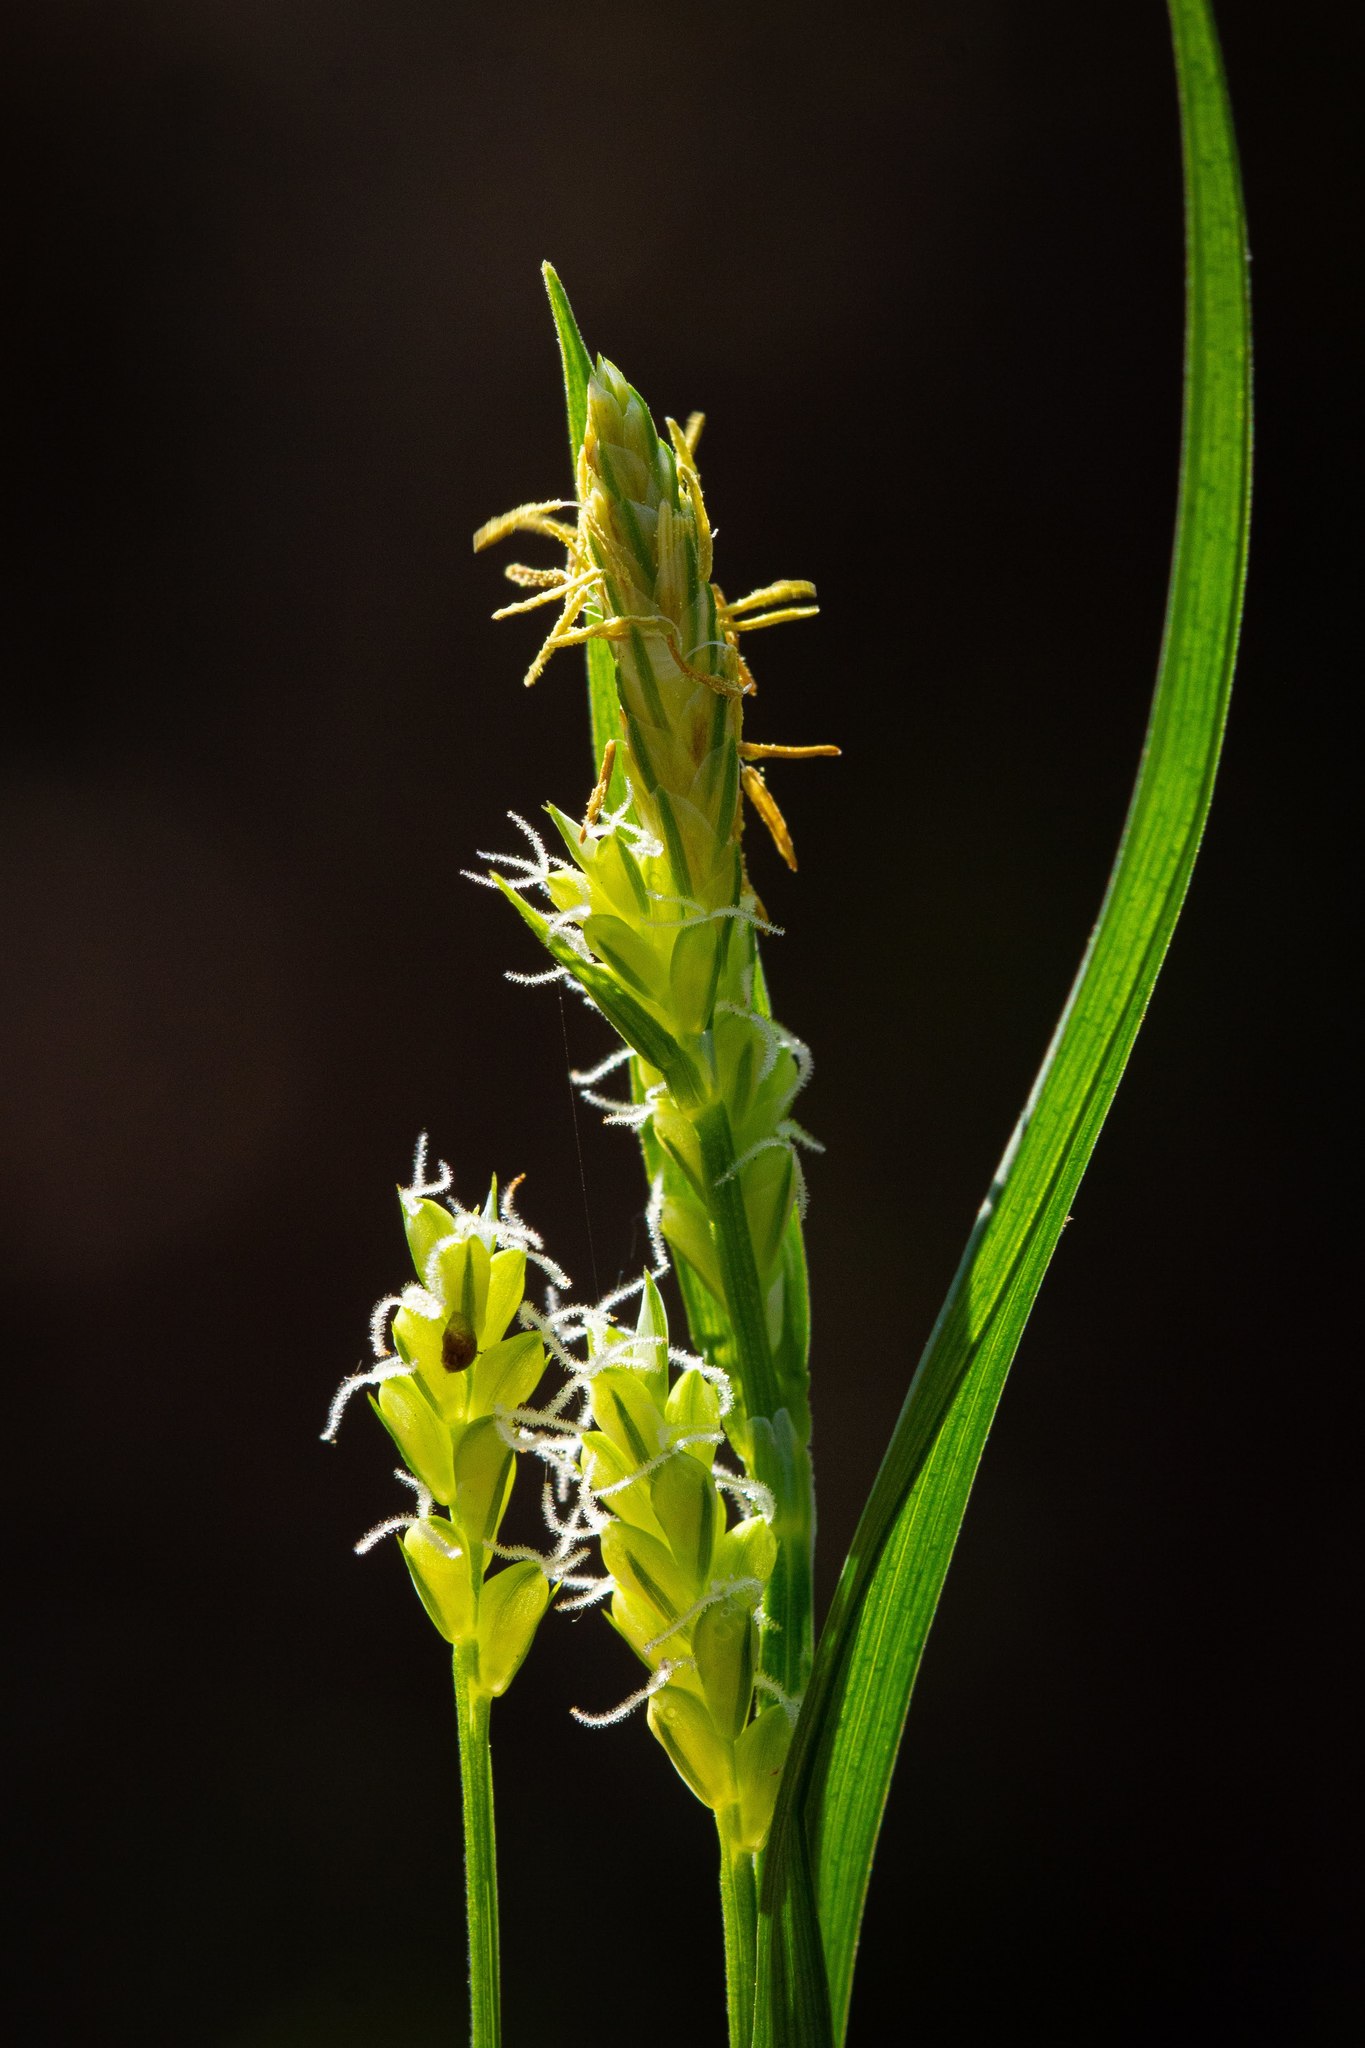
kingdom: Plantae
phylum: Tracheophyta
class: Liliopsida
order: Poales
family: Cyperaceae
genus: Carex
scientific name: Carex blanda
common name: Bland sedge
